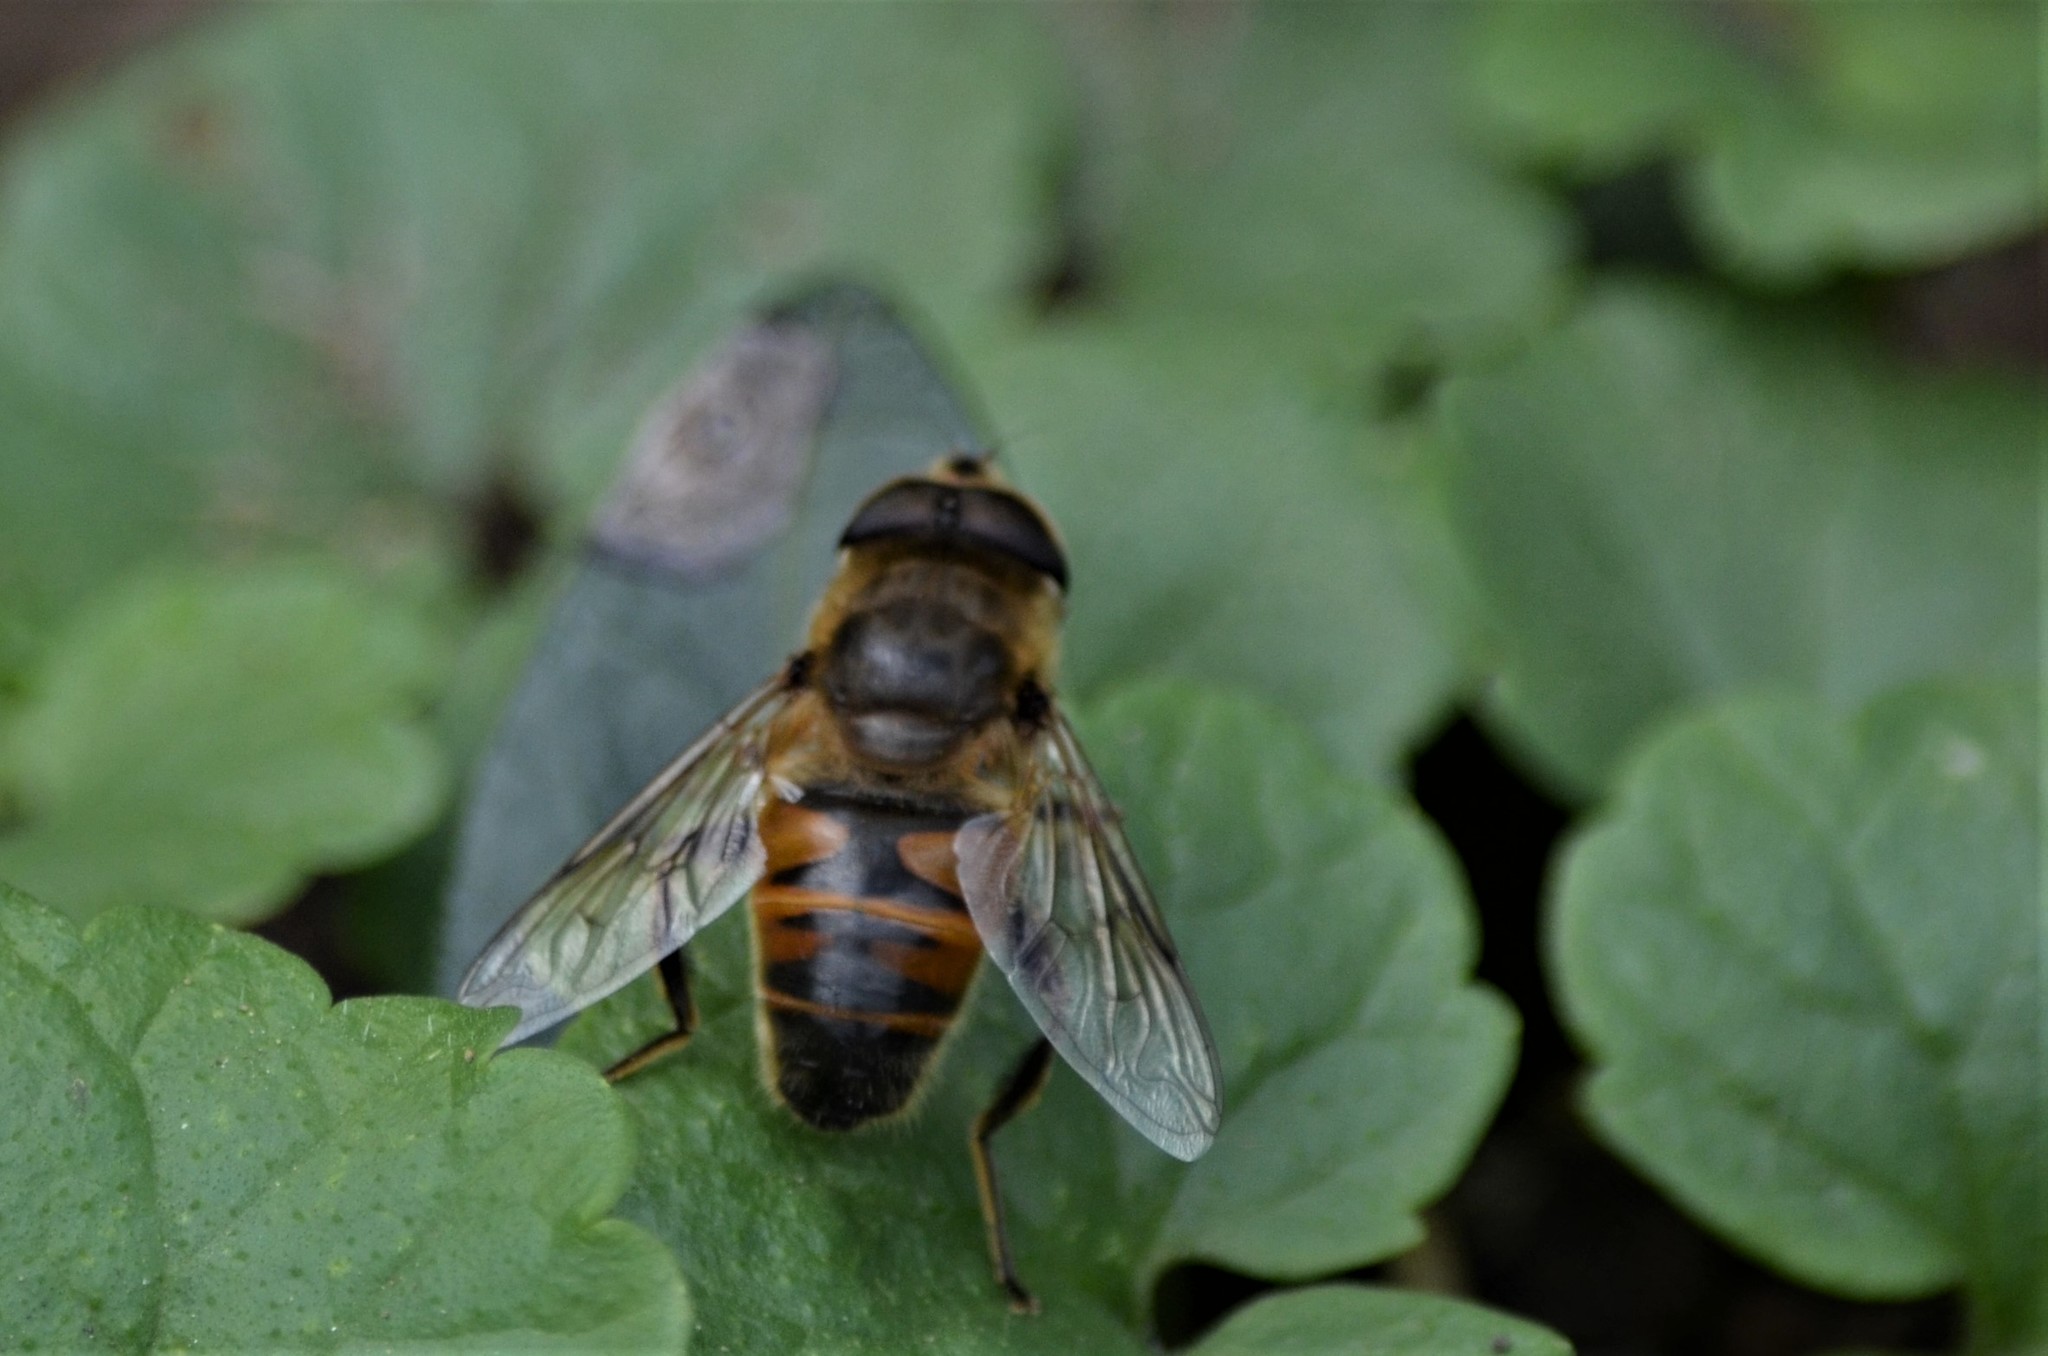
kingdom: Animalia
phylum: Arthropoda
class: Insecta
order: Diptera
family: Syrphidae
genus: Eristalis
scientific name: Eristalis tenax
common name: Drone fly
